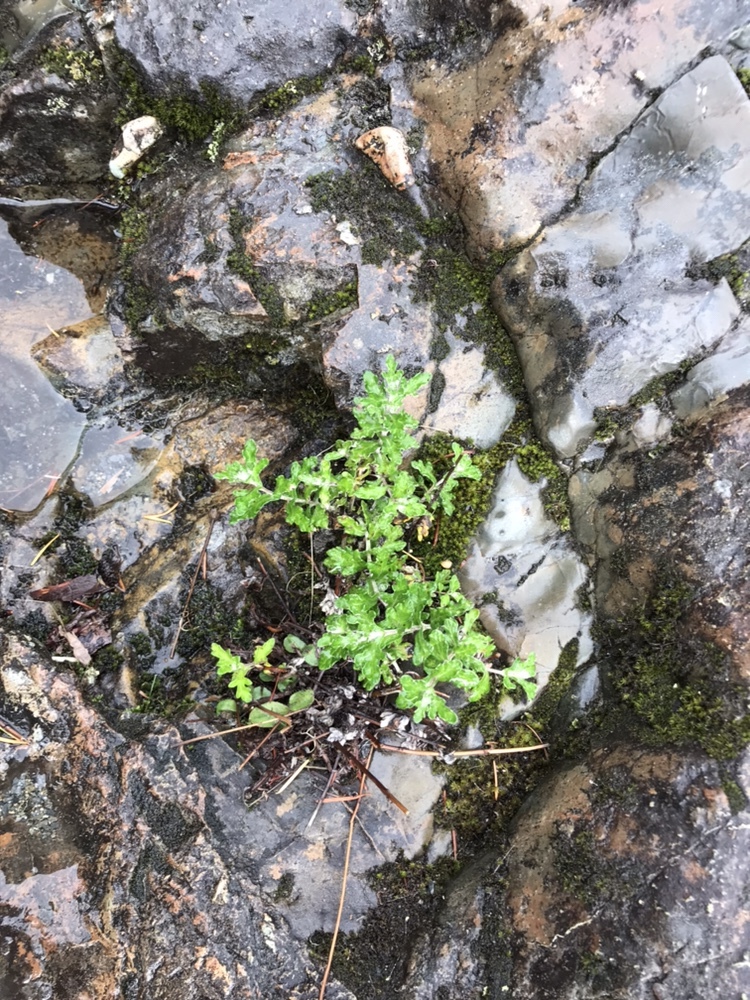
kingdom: Plantae
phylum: Tracheophyta
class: Magnoliopsida
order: Asterales
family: Asteraceae
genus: Eriophyllum
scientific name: Eriophyllum lanatum
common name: Common woolly-sunflower
